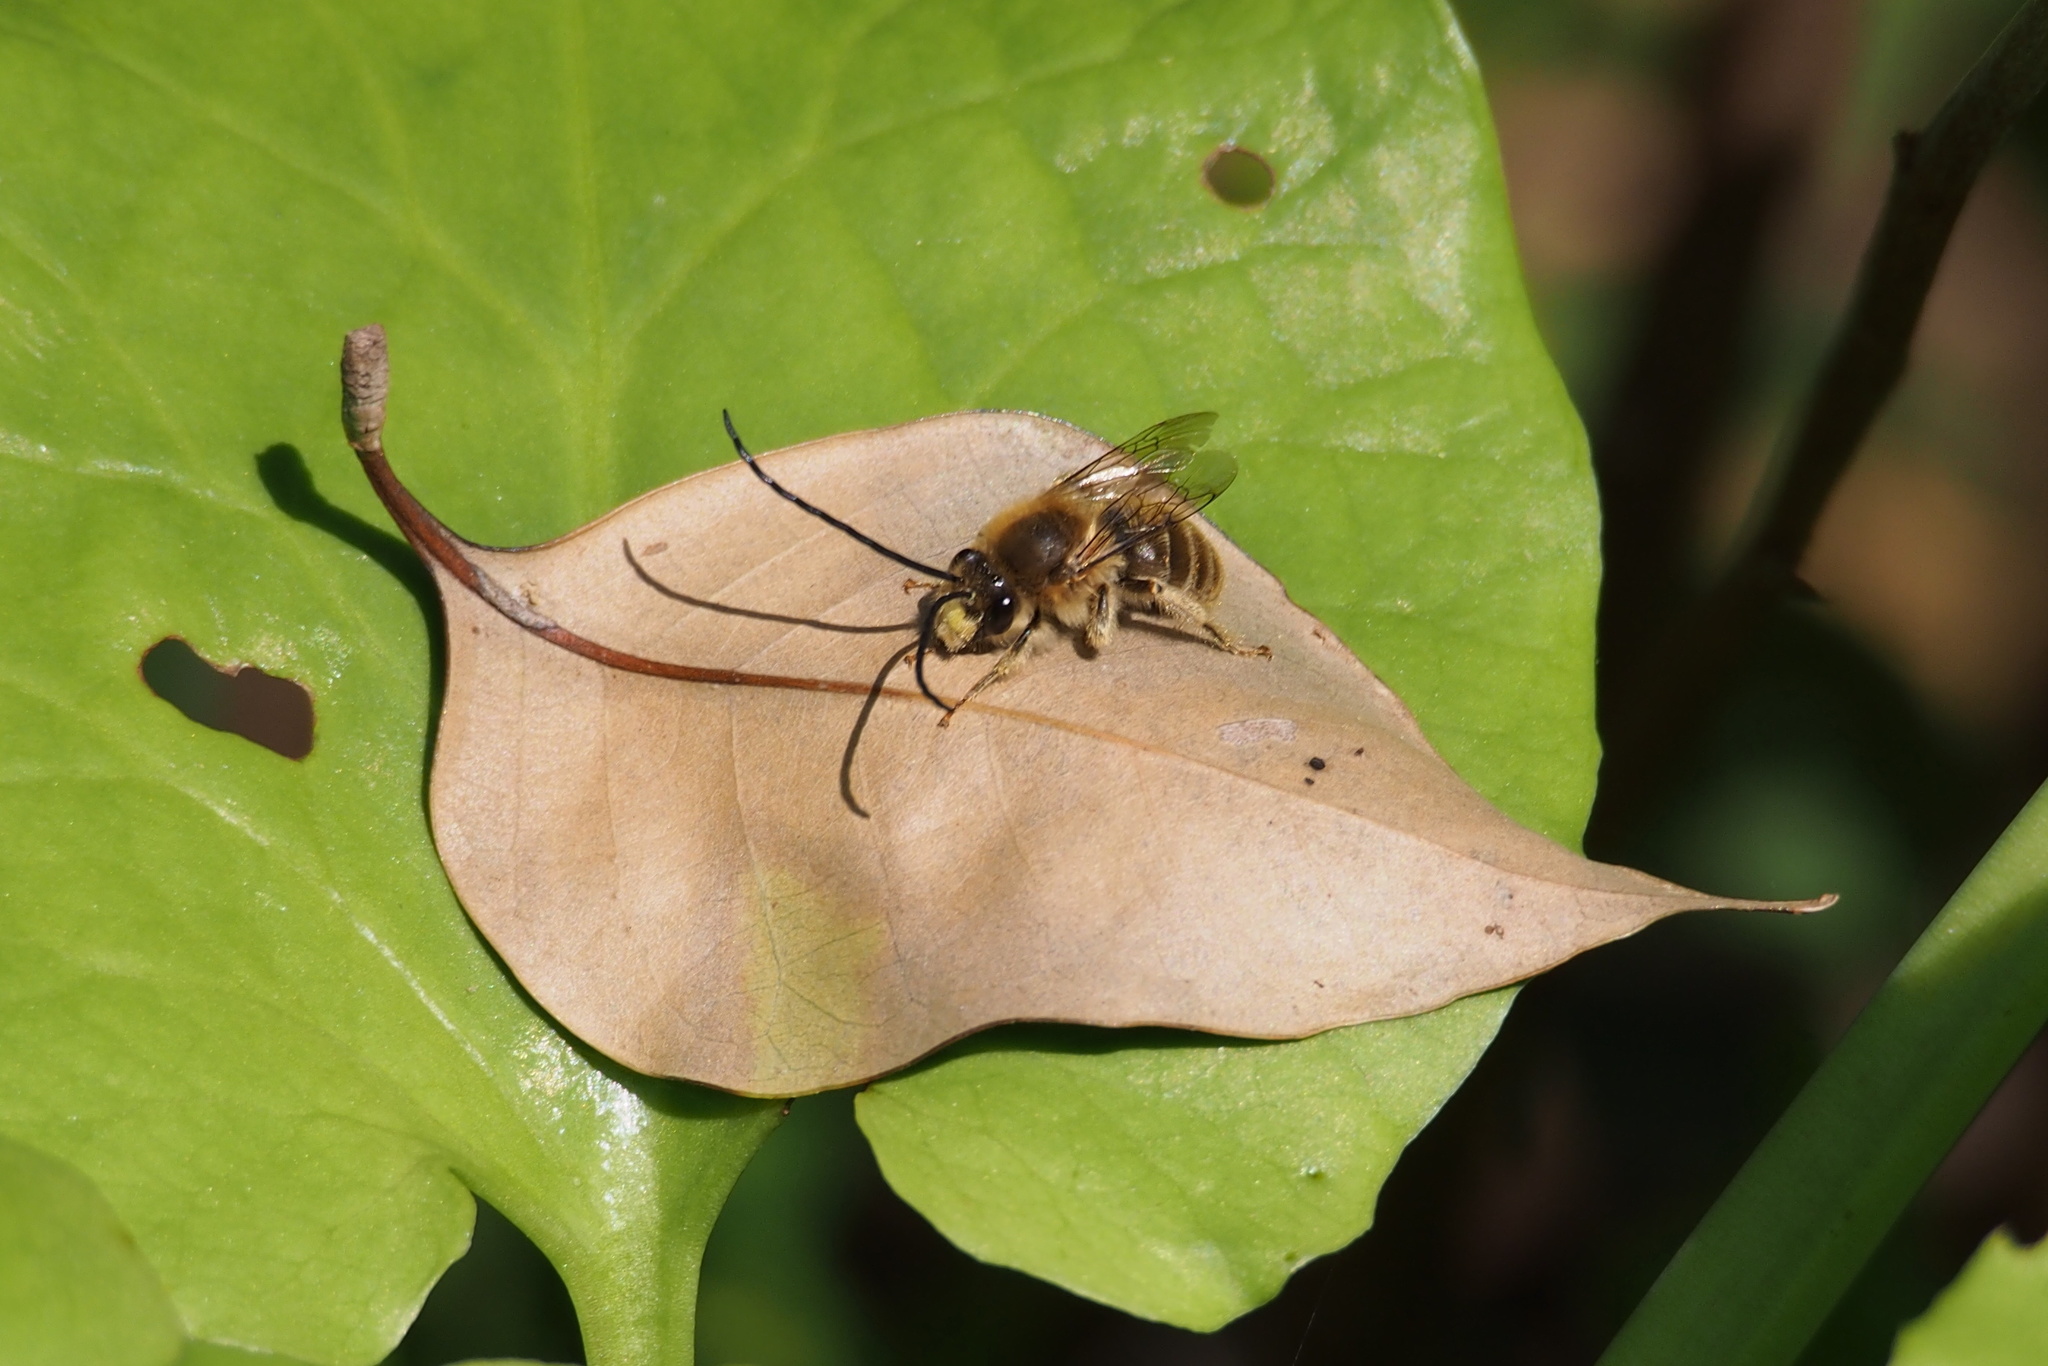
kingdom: Animalia
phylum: Arthropoda
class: Insecta
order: Hymenoptera
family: Apidae
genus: Eucera
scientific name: Eucera nipponensis
